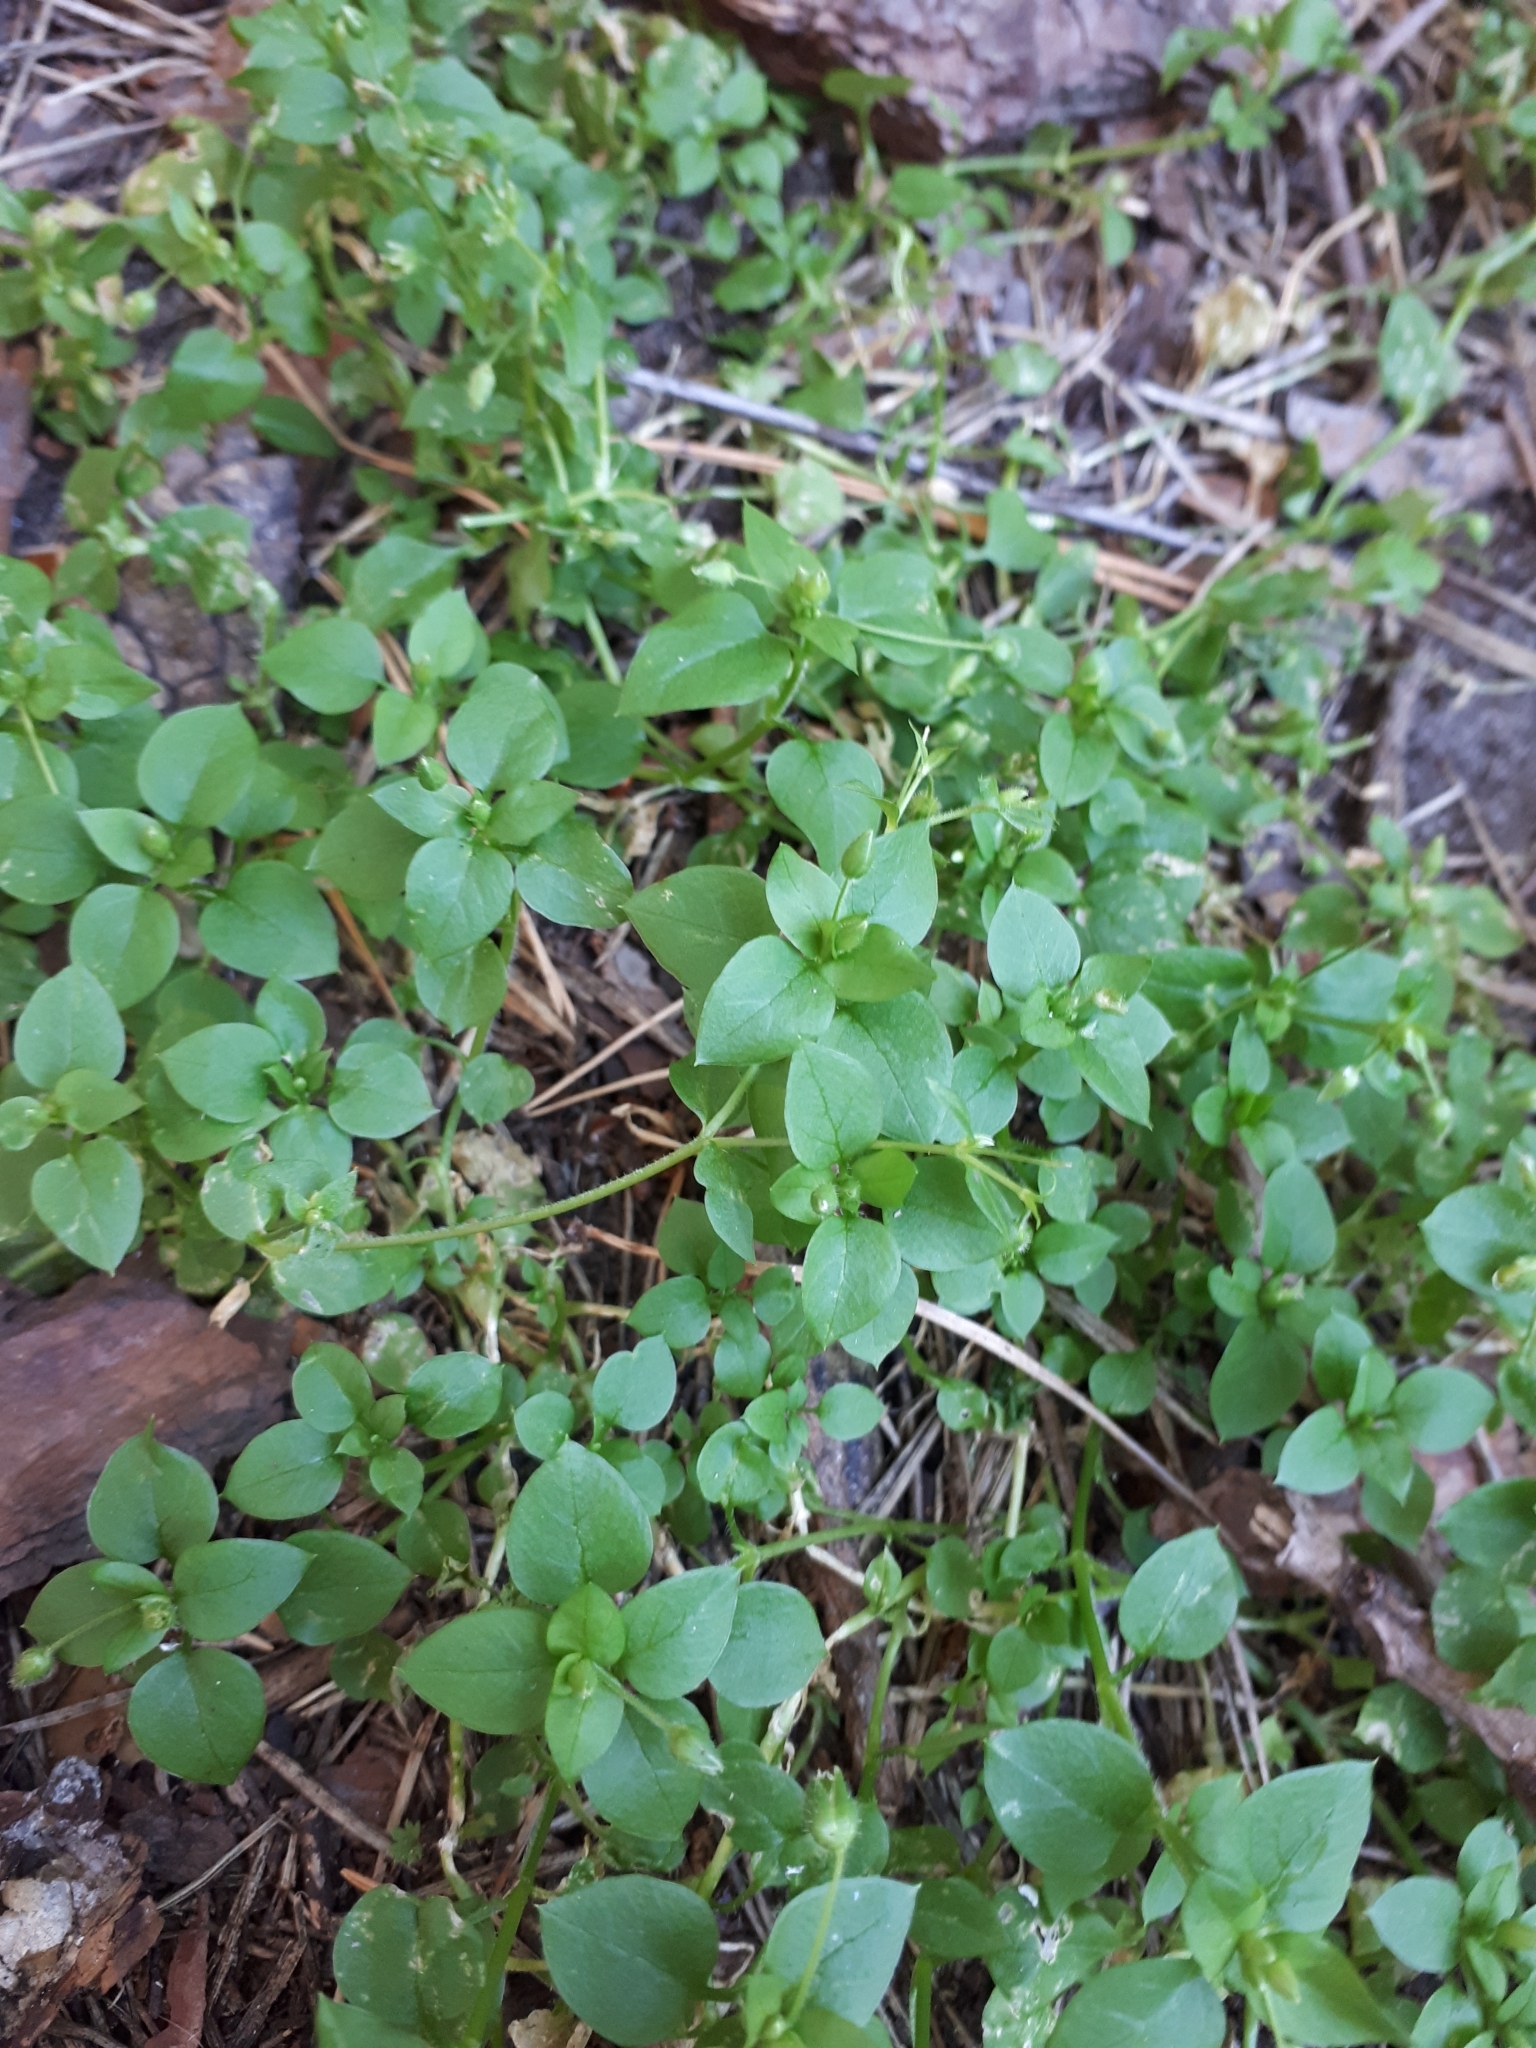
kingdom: Plantae
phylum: Tracheophyta
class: Magnoliopsida
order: Caryophyllales
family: Caryophyllaceae
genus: Stellaria
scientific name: Stellaria media
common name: Common chickweed
